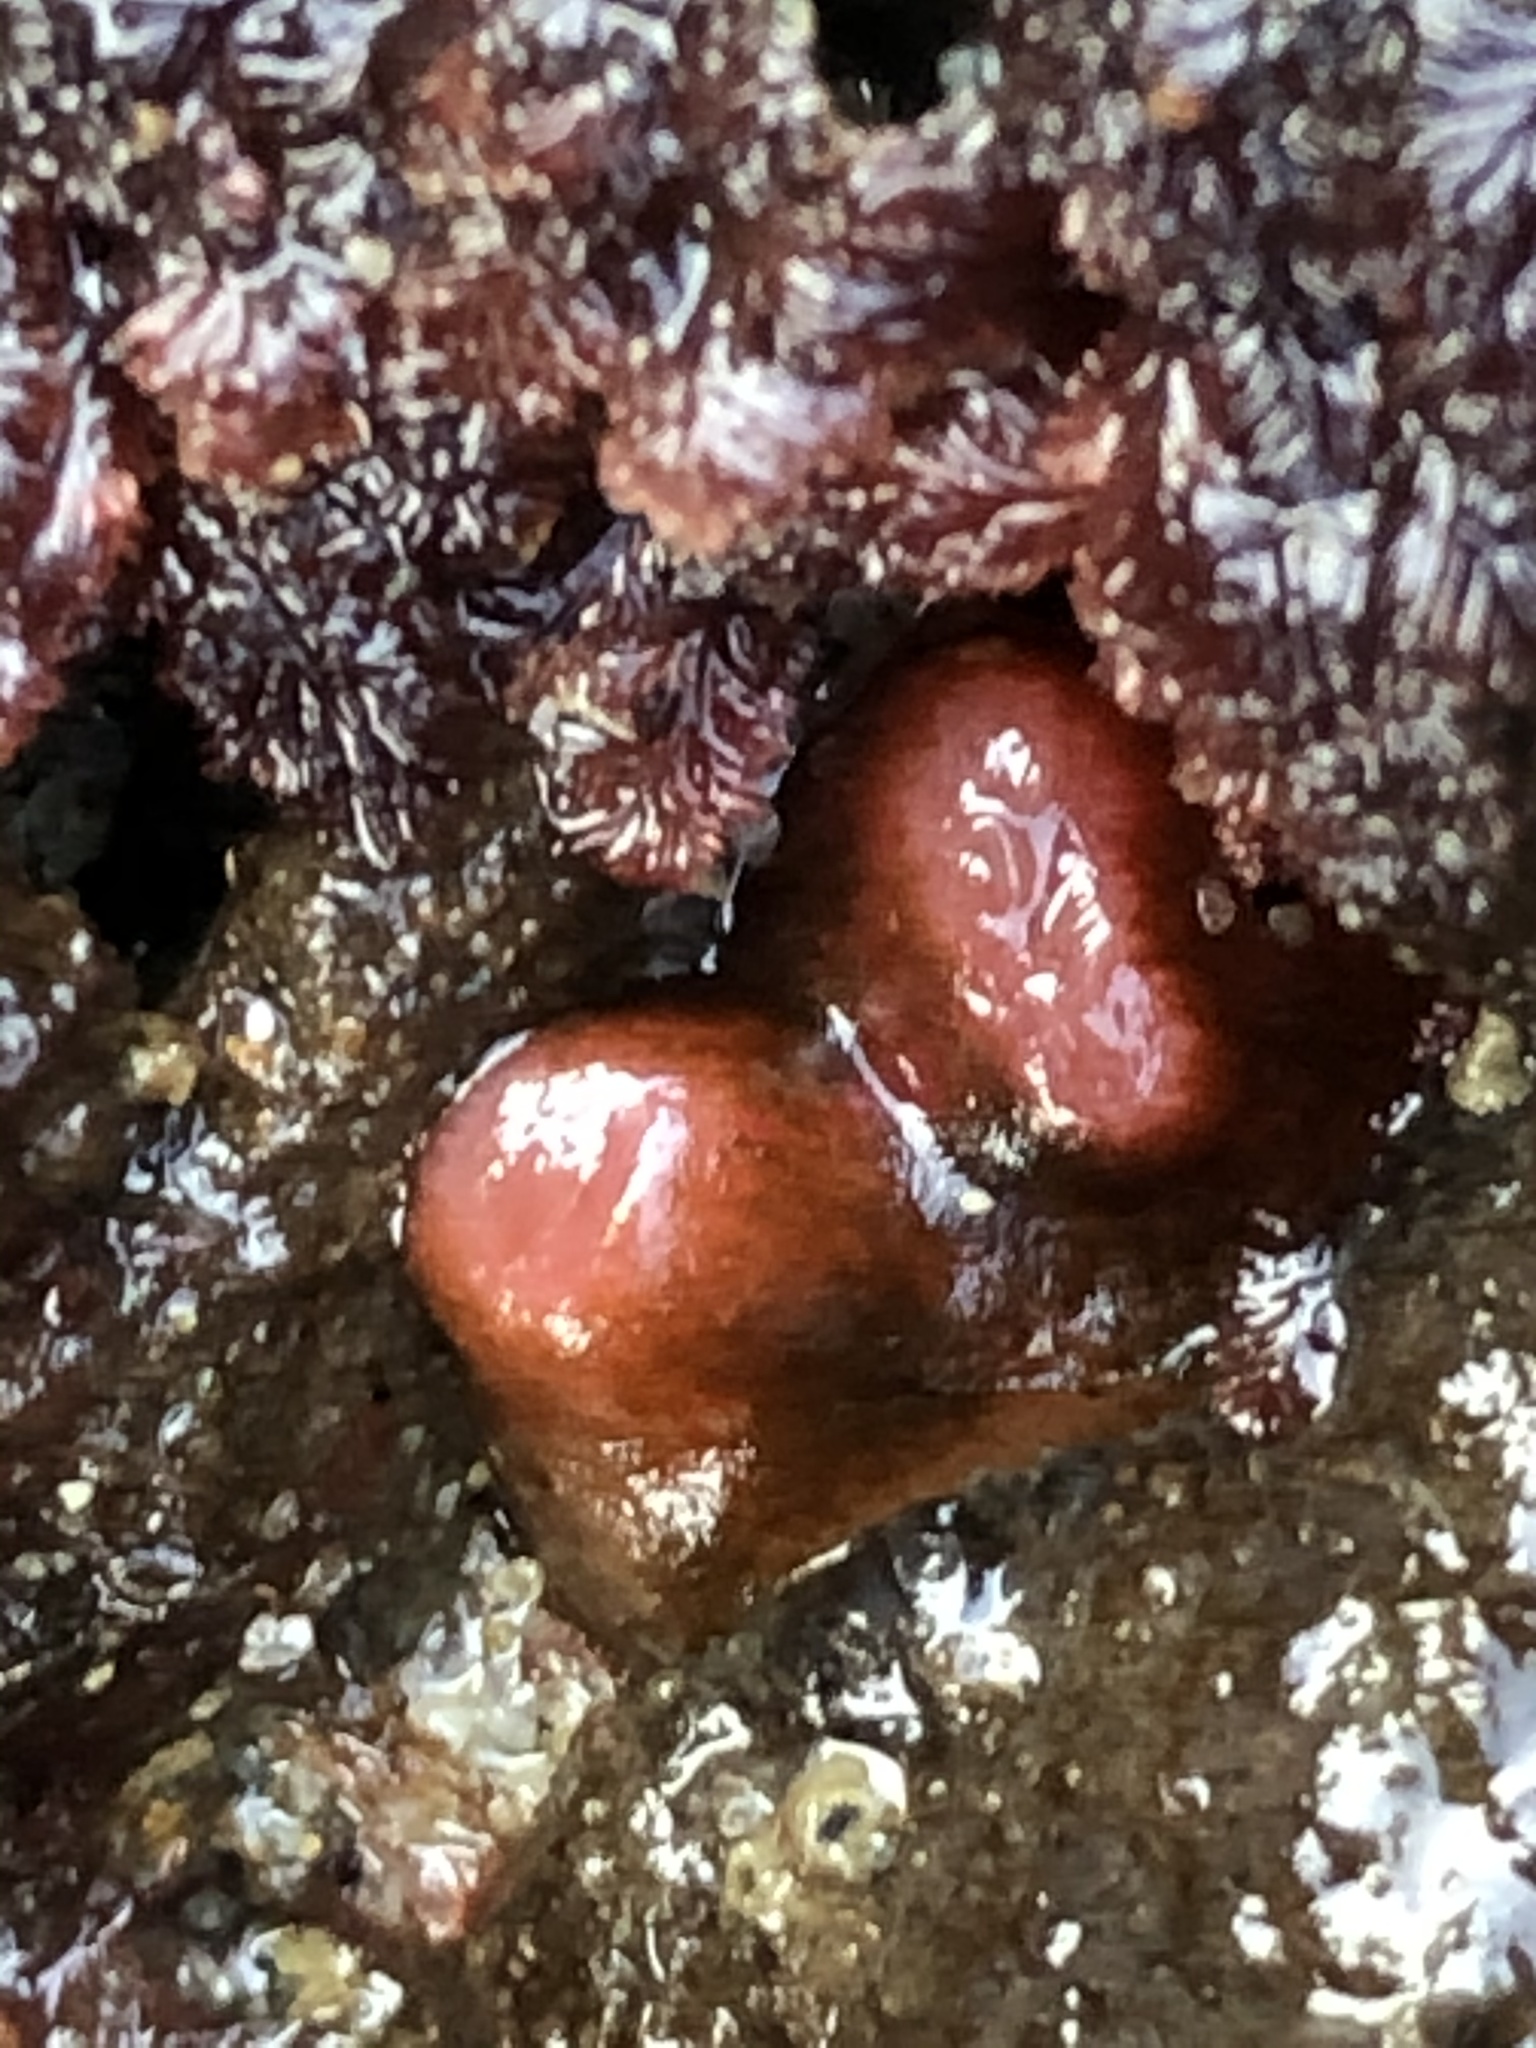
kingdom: Animalia
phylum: Mollusca
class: Bivalvia
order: Adapedonta
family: Hiatellidae
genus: Hiatella
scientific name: Hiatella arctica
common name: Arctic hiatella
